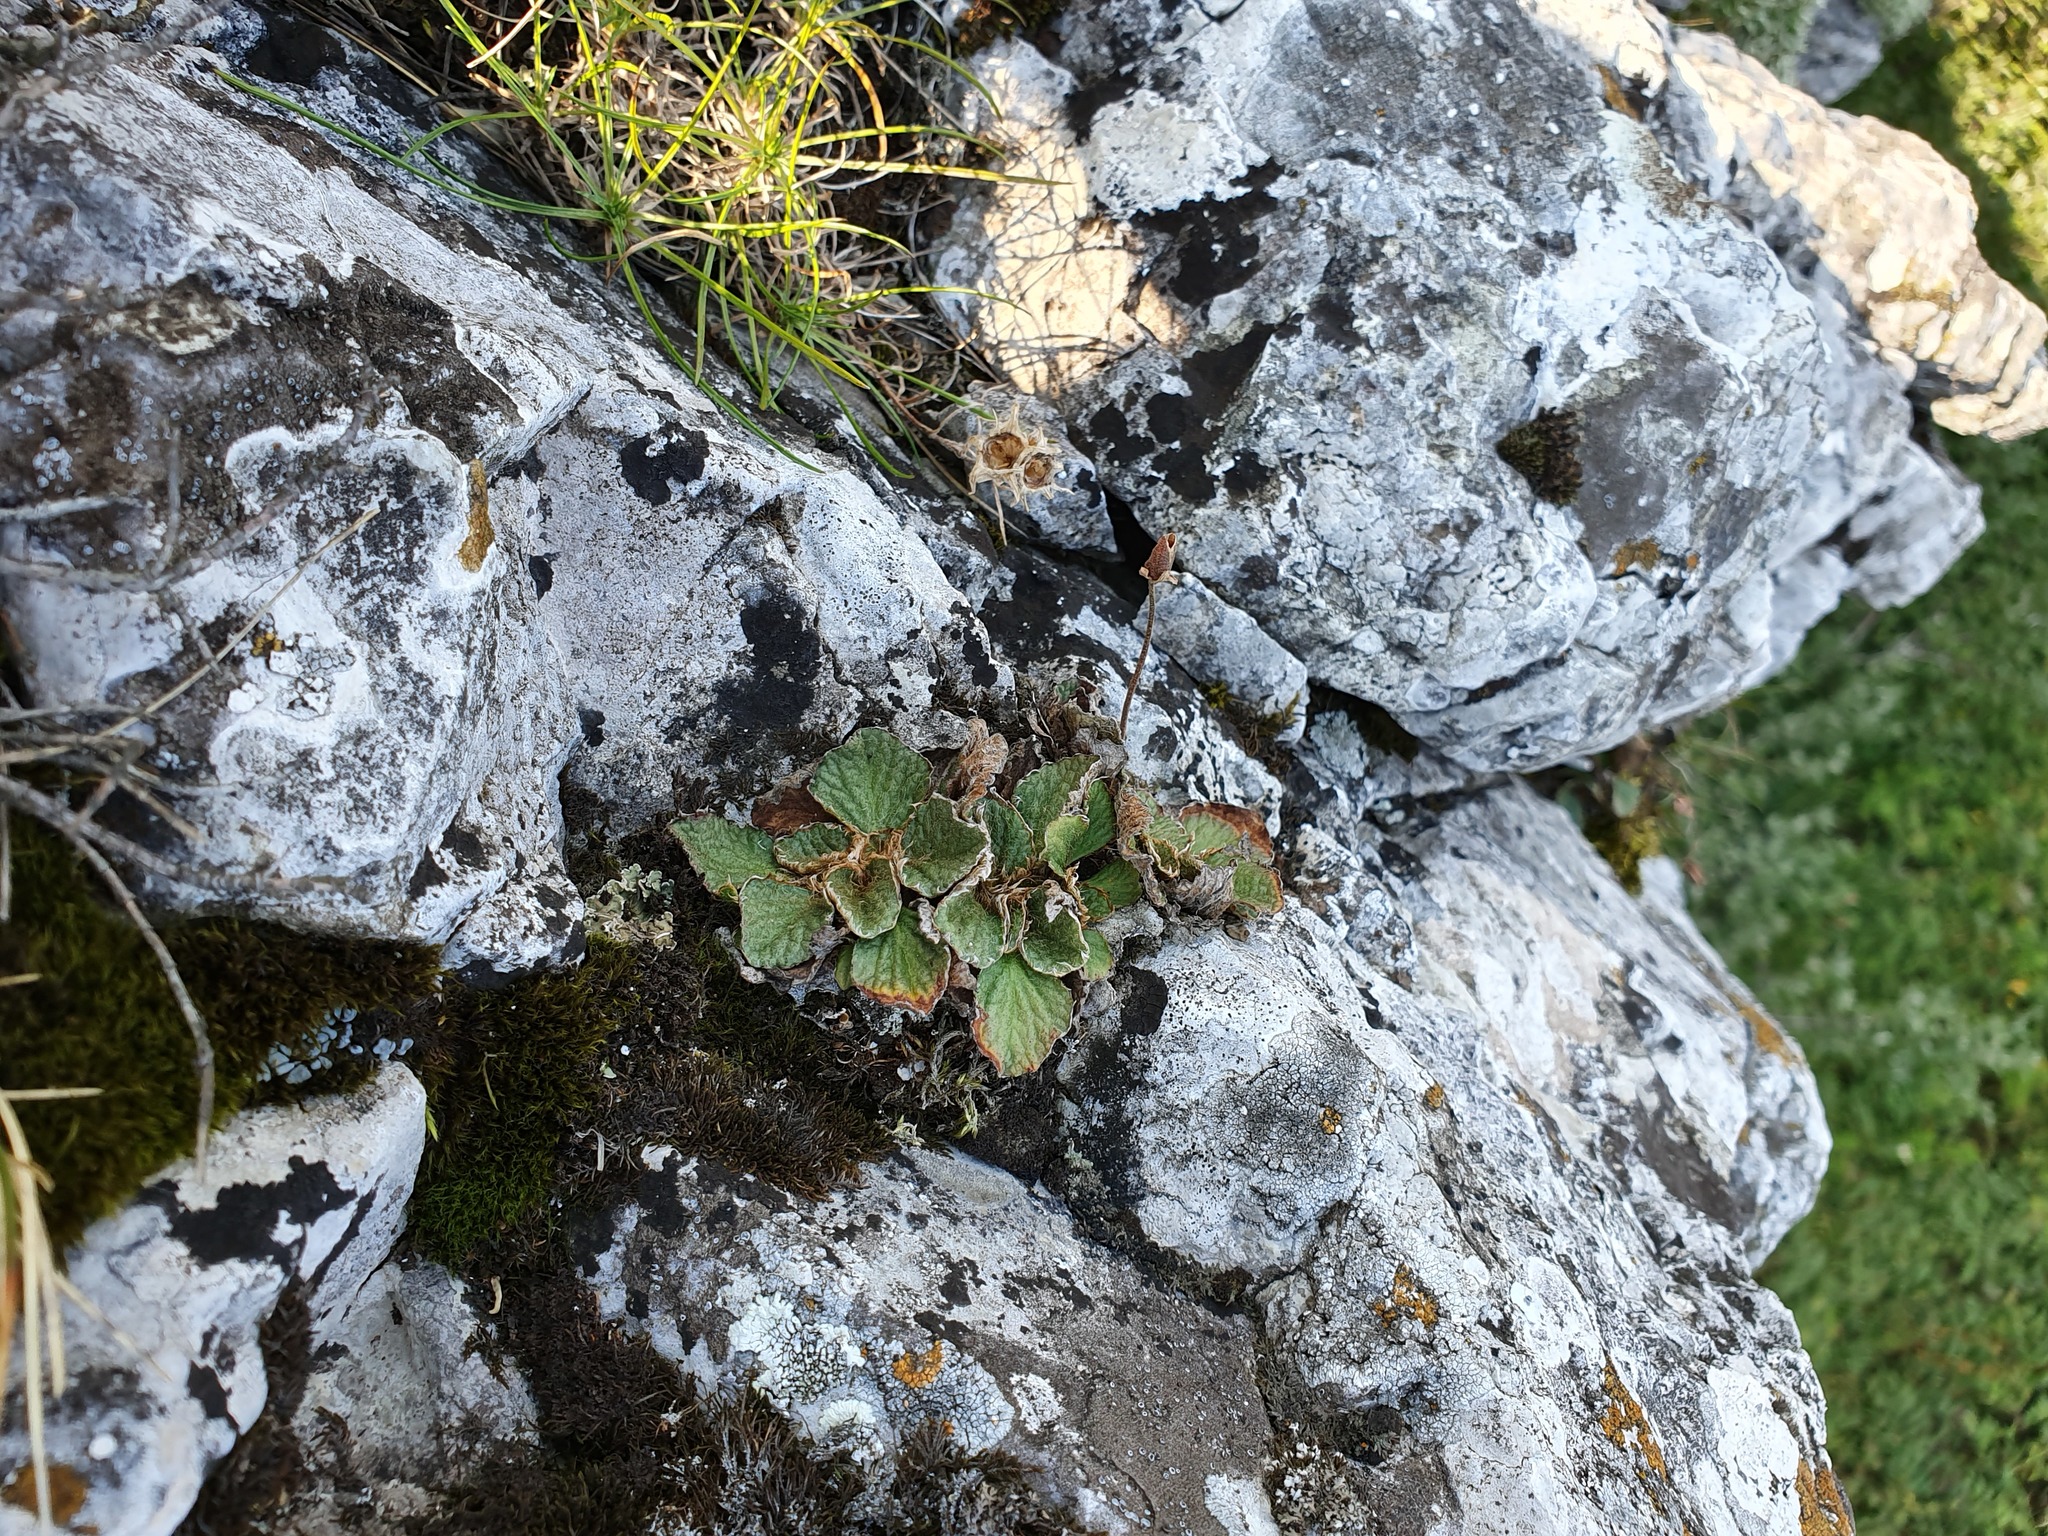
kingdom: Plantae
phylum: Tracheophyta
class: Magnoliopsida
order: Lamiales
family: Gesneriaceae
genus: Ramonda
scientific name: Ramonda nathaliae
